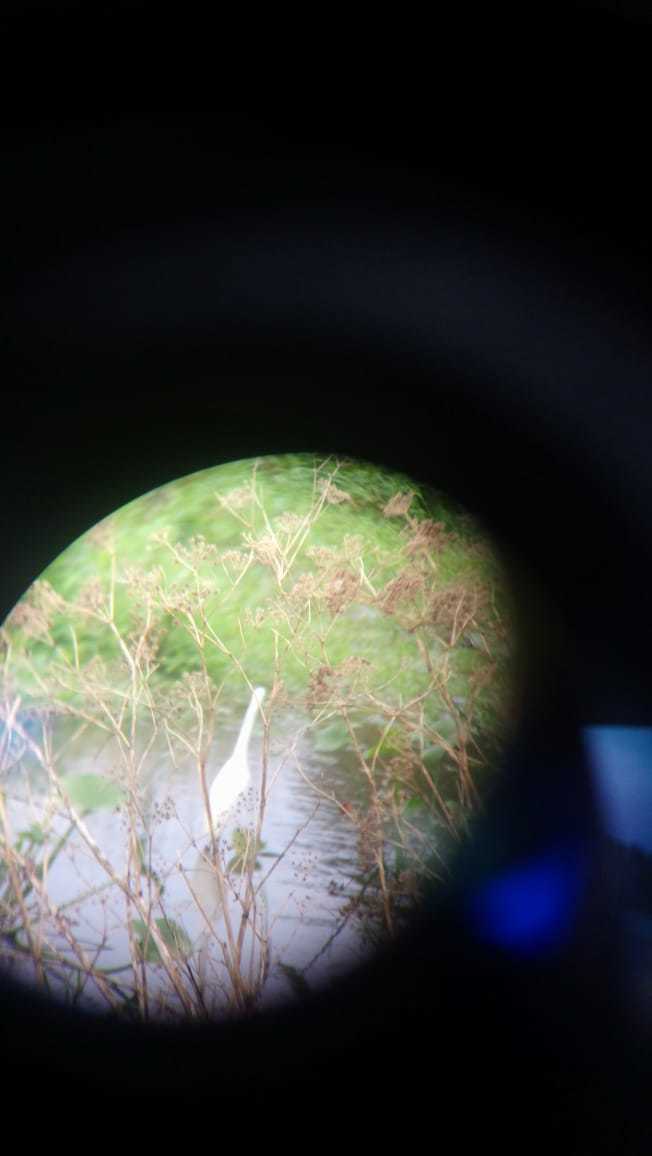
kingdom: Animalia
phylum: Chordata
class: Aves
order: Pelecaniformes
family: Ardeidae
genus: Egretta
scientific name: Egretta thula
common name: Snowy egret
